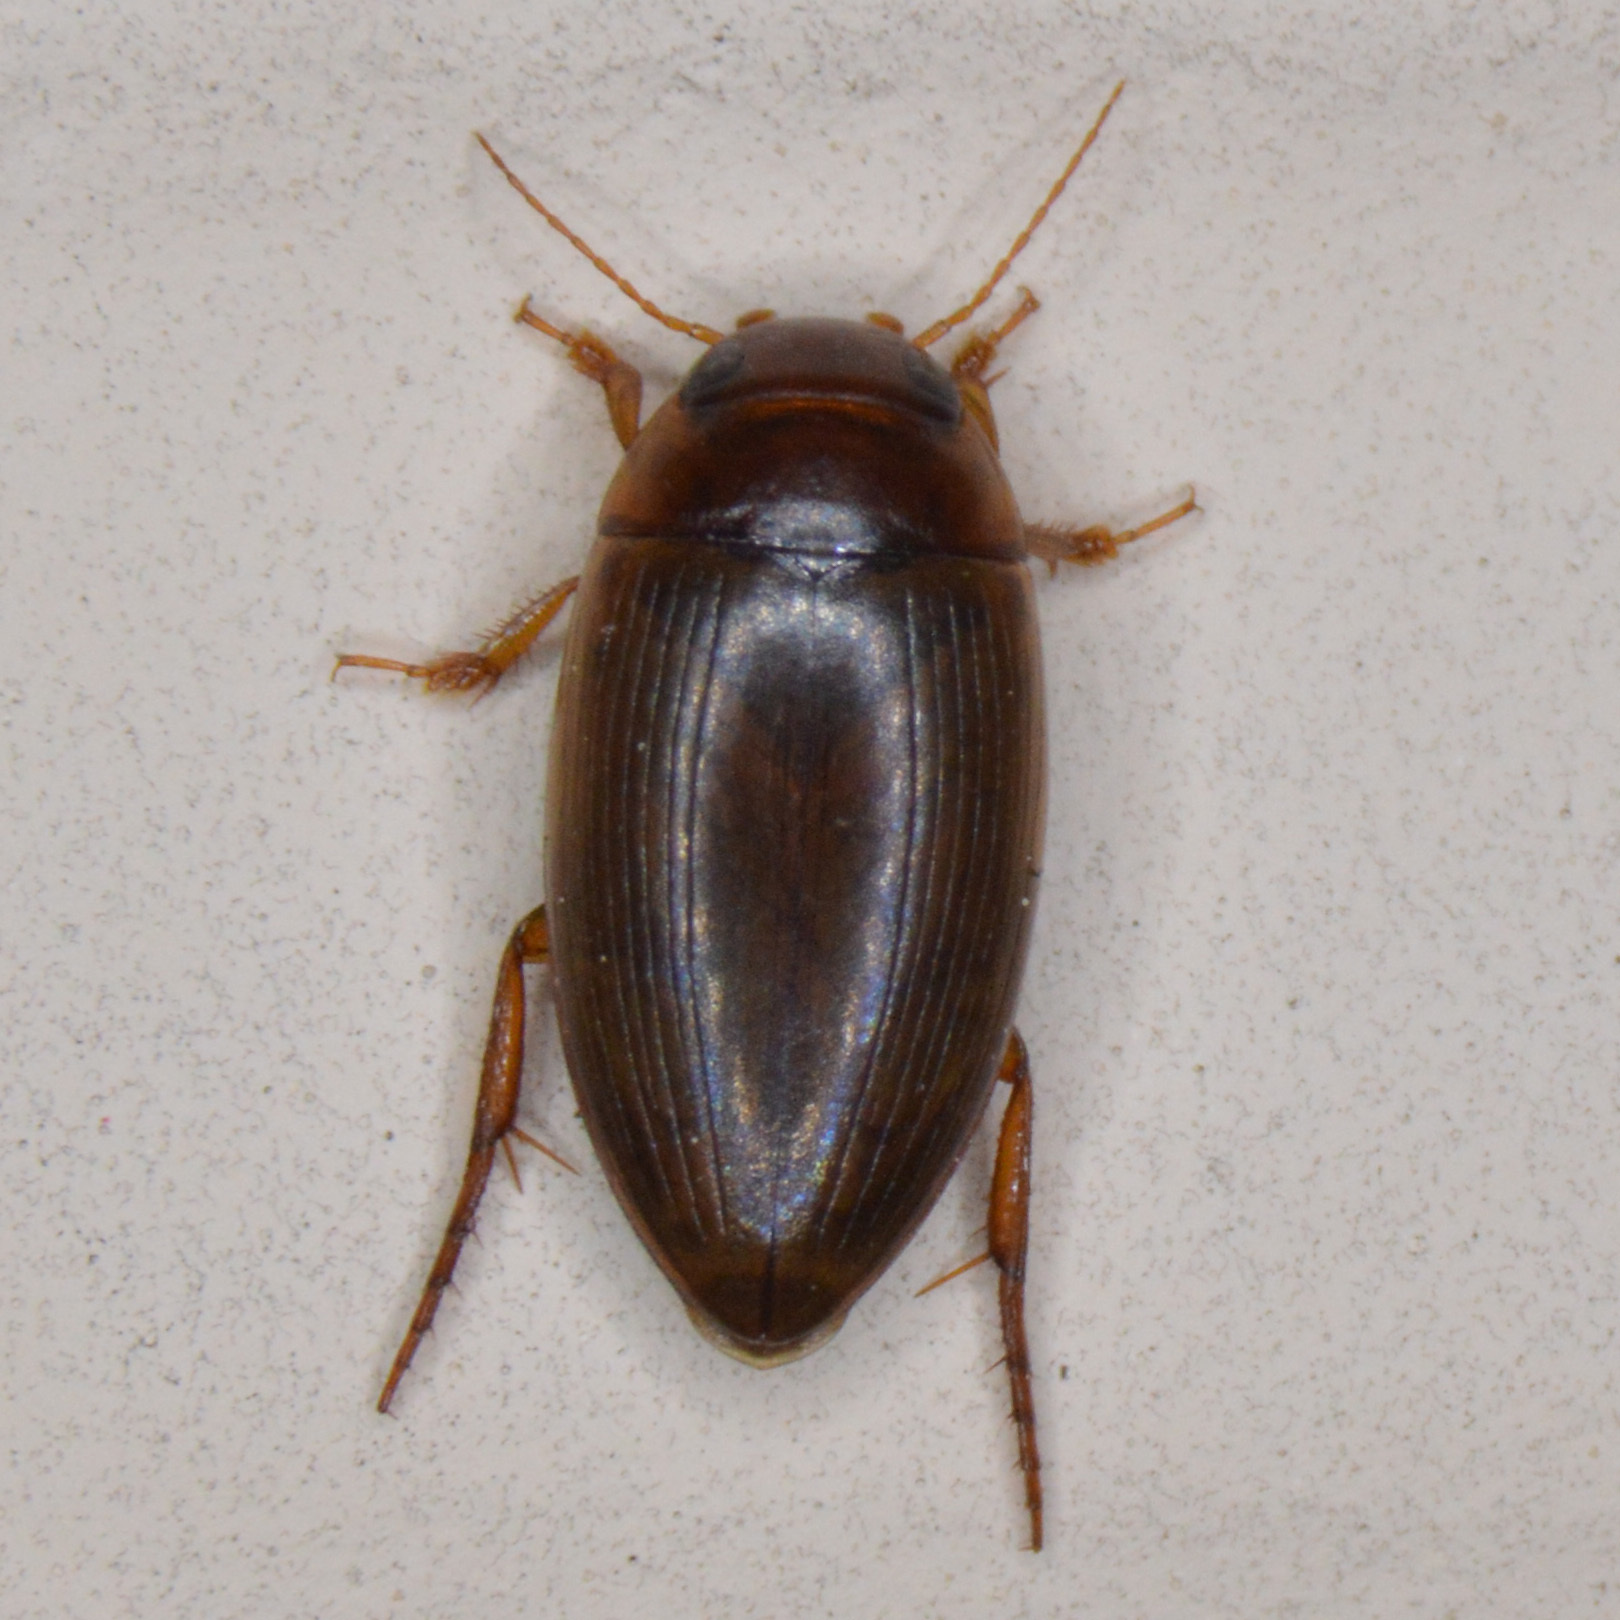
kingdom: Animalia
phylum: Arthropoda
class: Insecta
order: Coleoptera
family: Dytiscidae
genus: Copelatus
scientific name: Copelatus chevrolati
